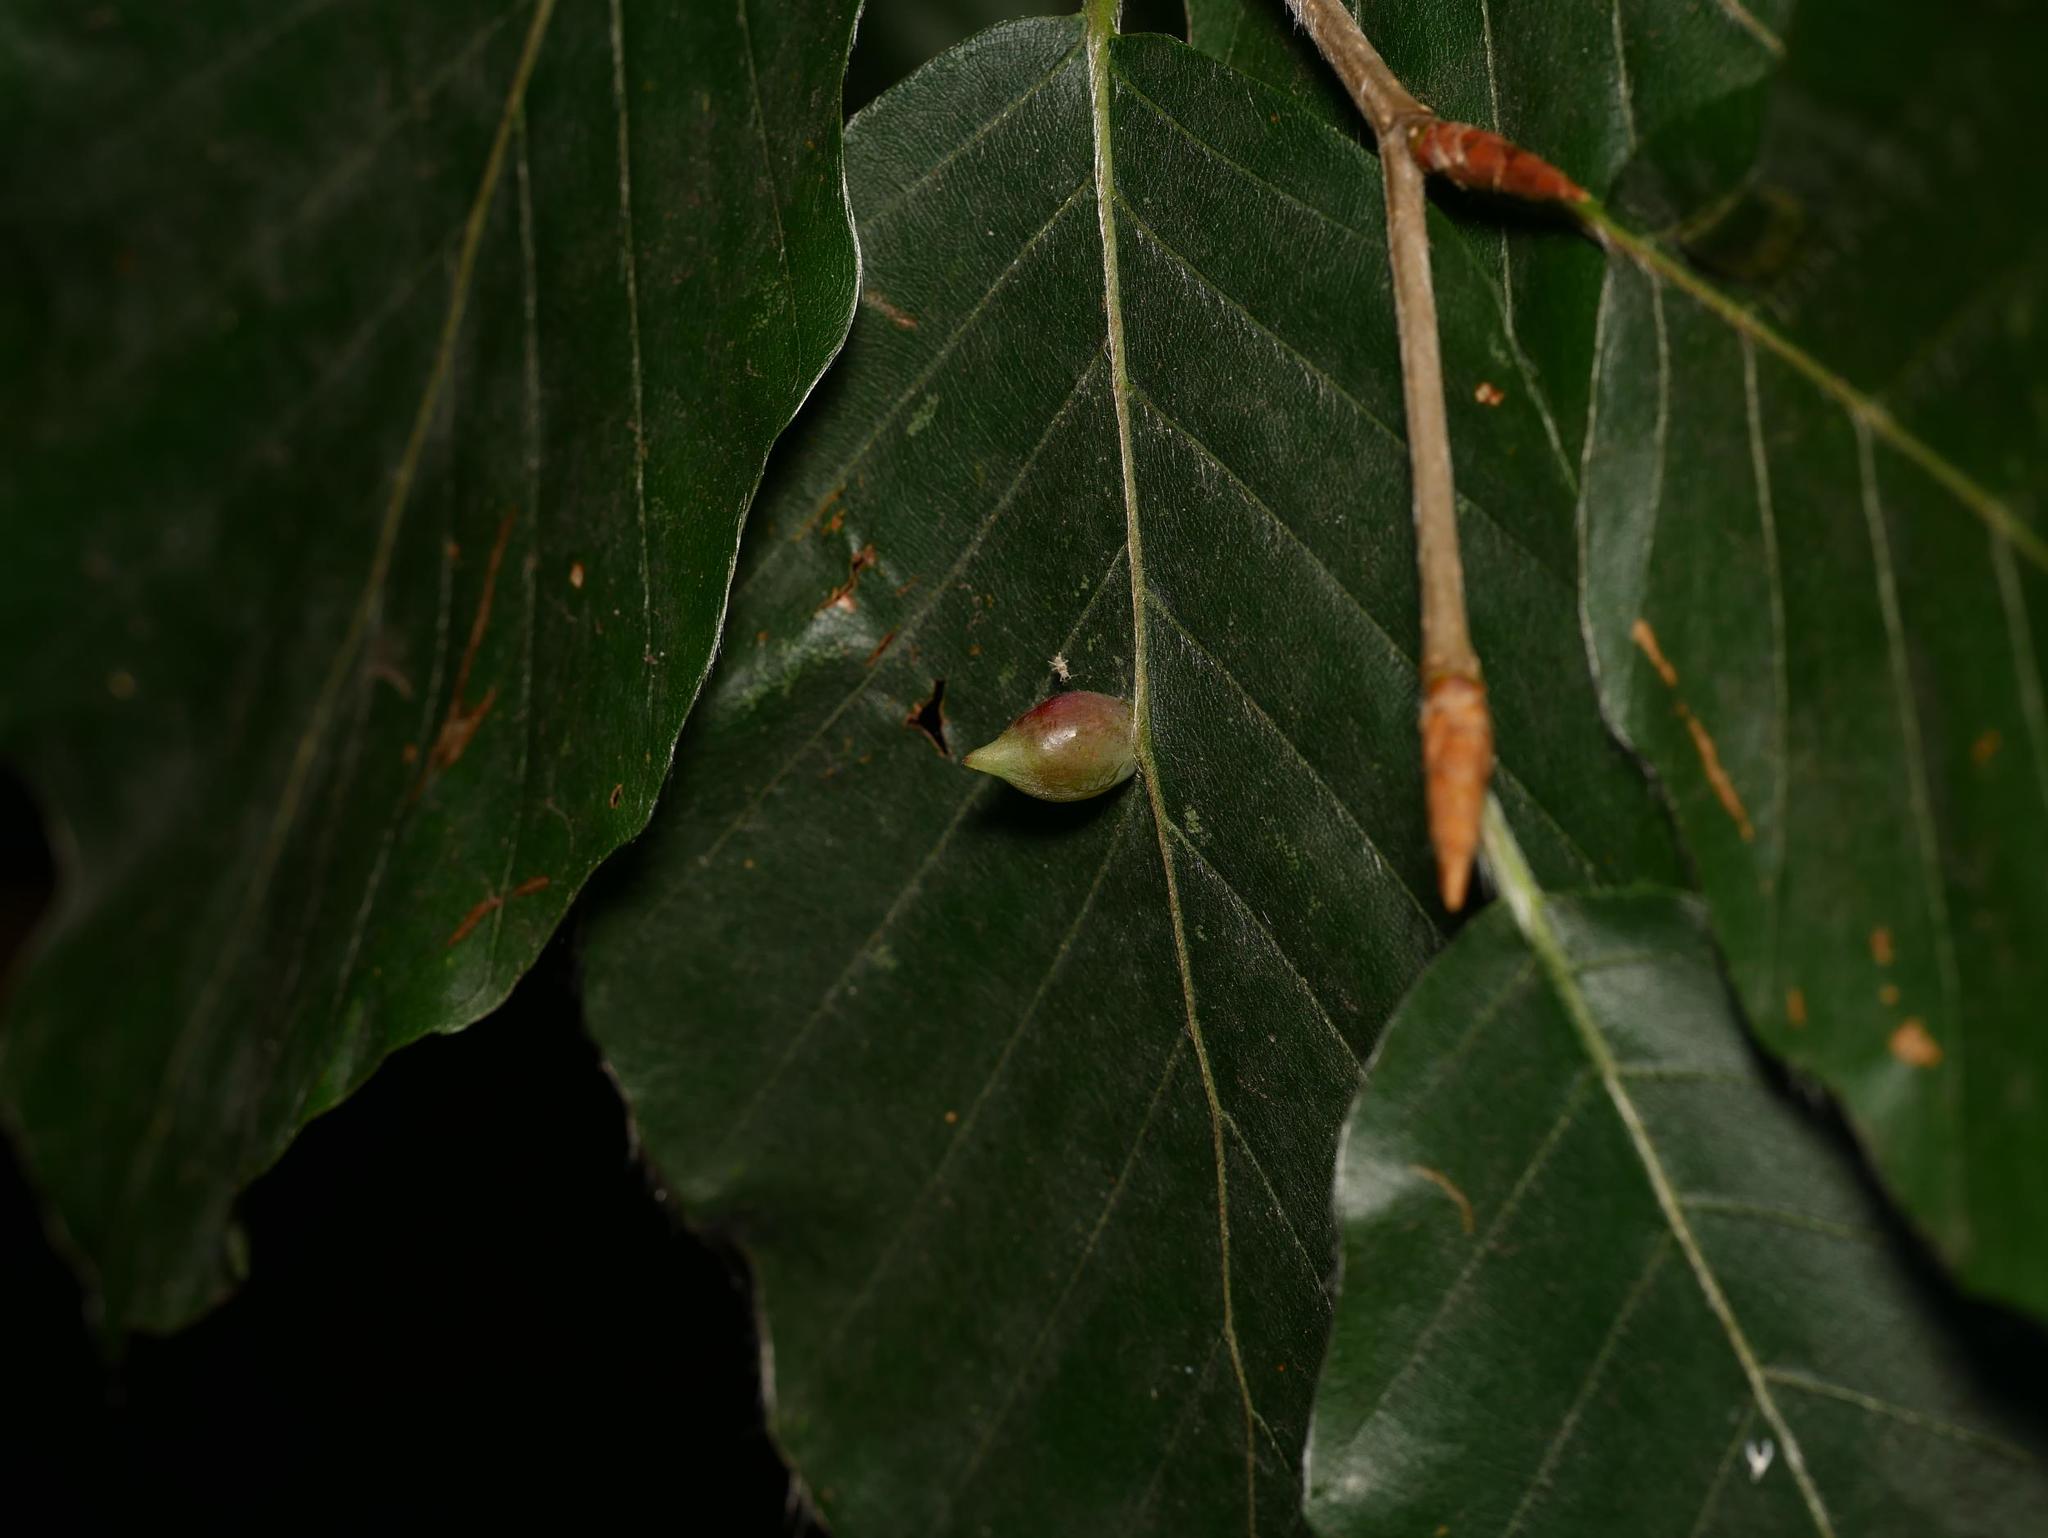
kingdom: Animalia
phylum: Arthropoda
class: Insecta
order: Diptera
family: Cecidomyiidae
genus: Mikiola
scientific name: Mikiola fagi
